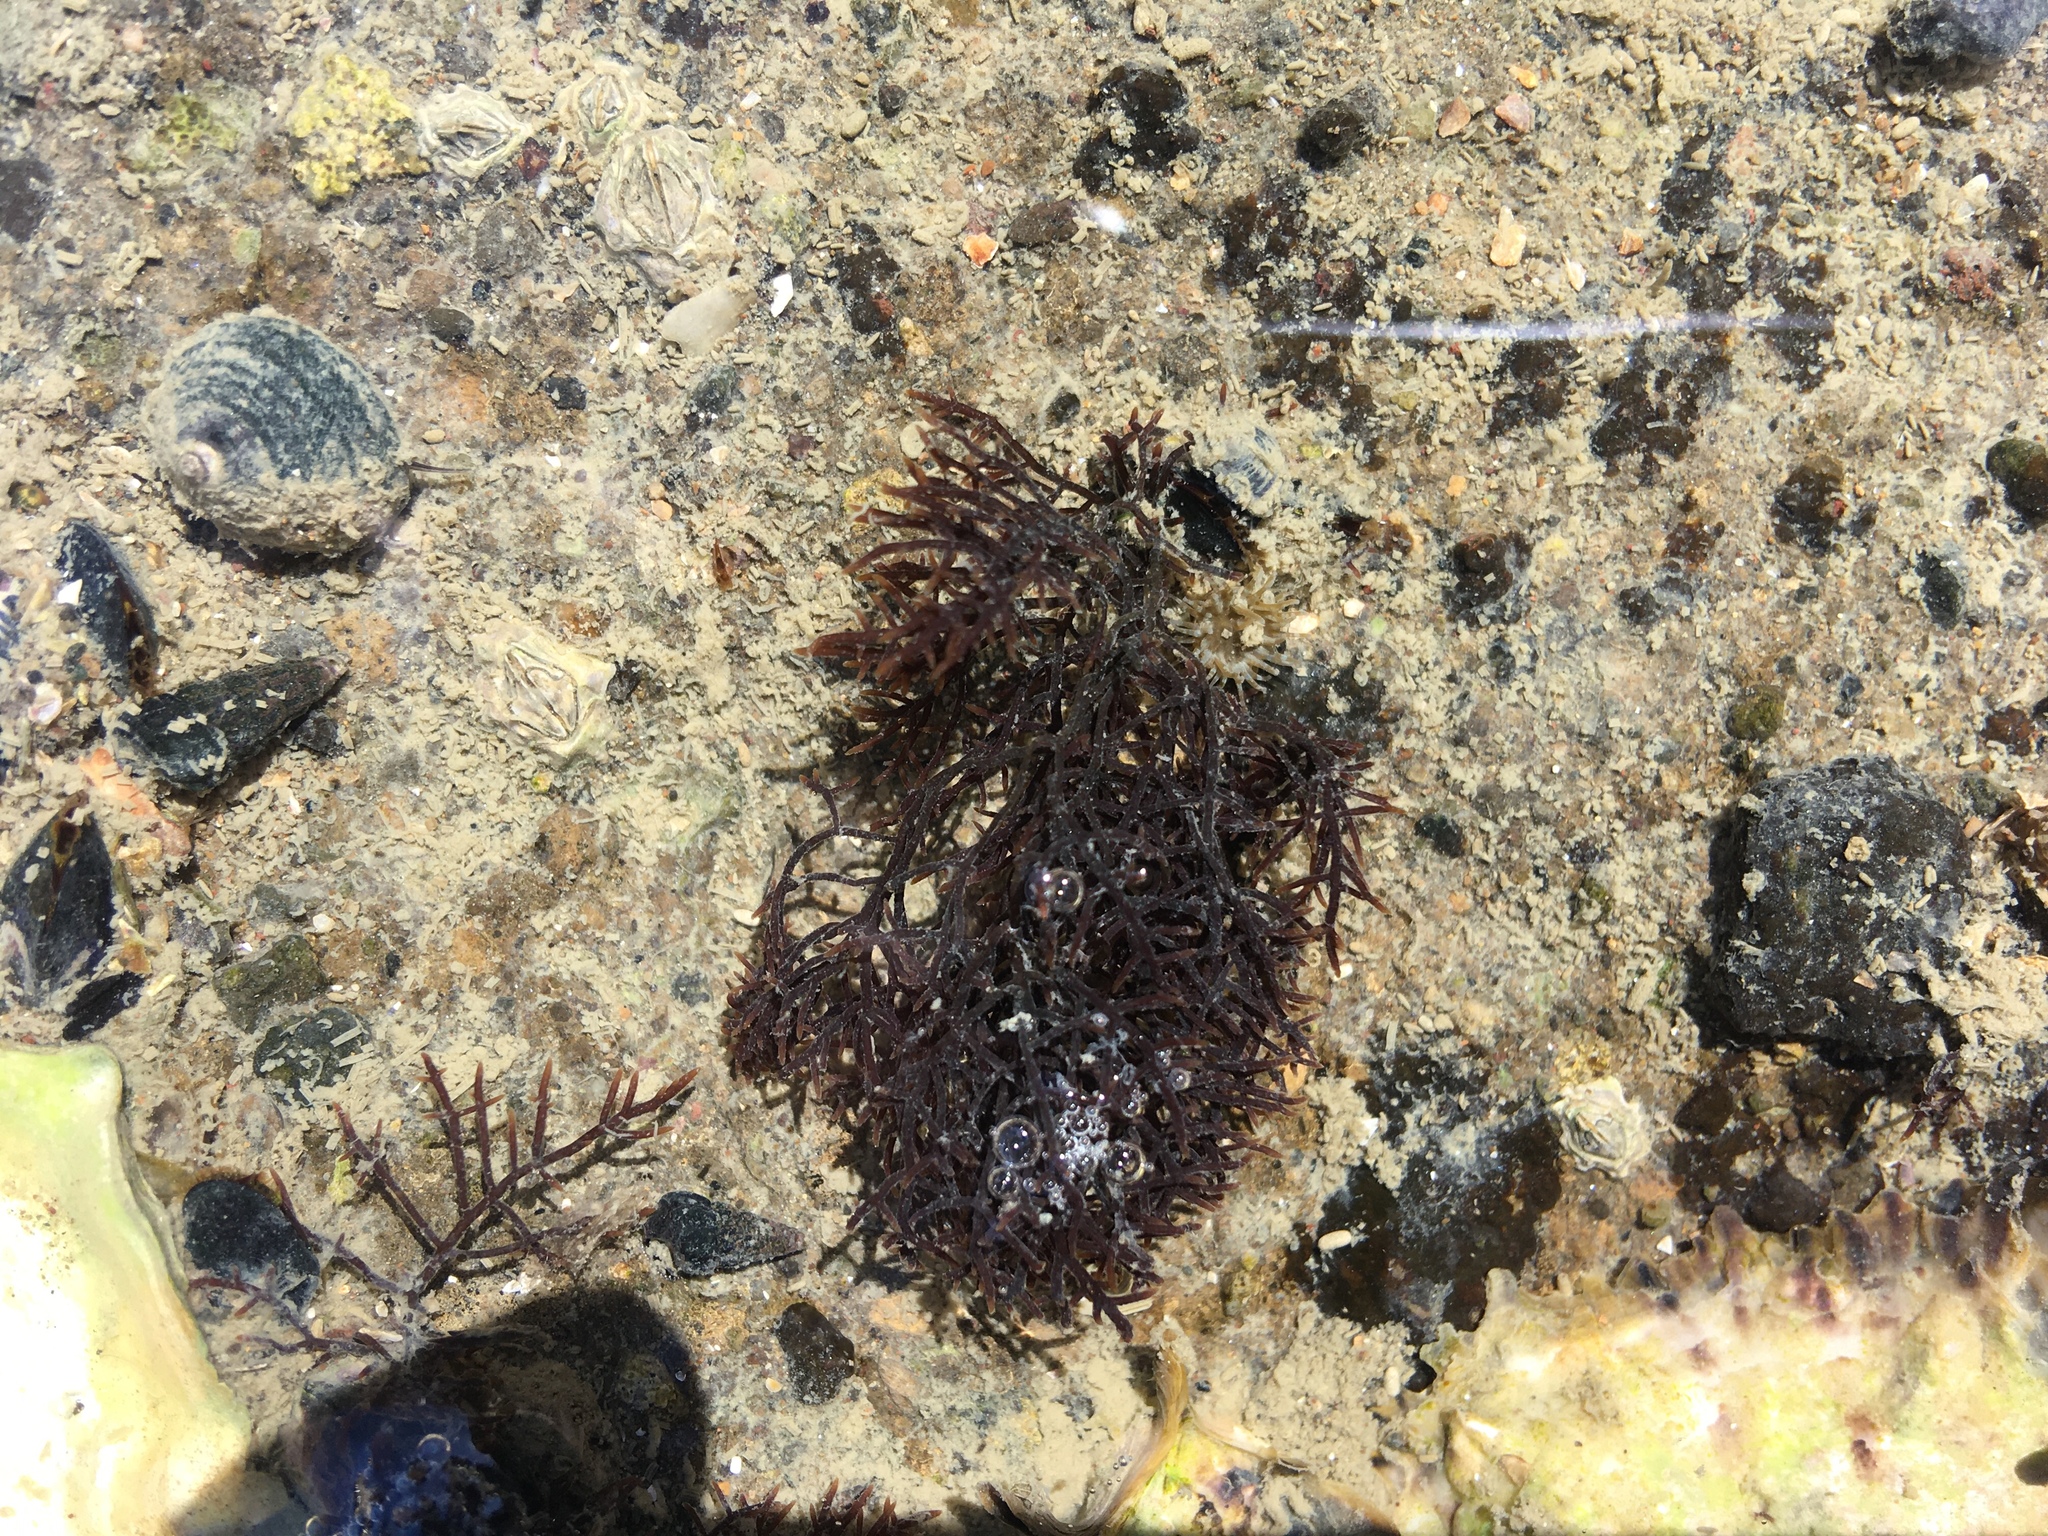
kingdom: Animalia
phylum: Mollusca
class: Gastropoda
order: Trochida
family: Trochidae
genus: Diloma
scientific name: Diloma aethiops
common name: Scorched monodont
